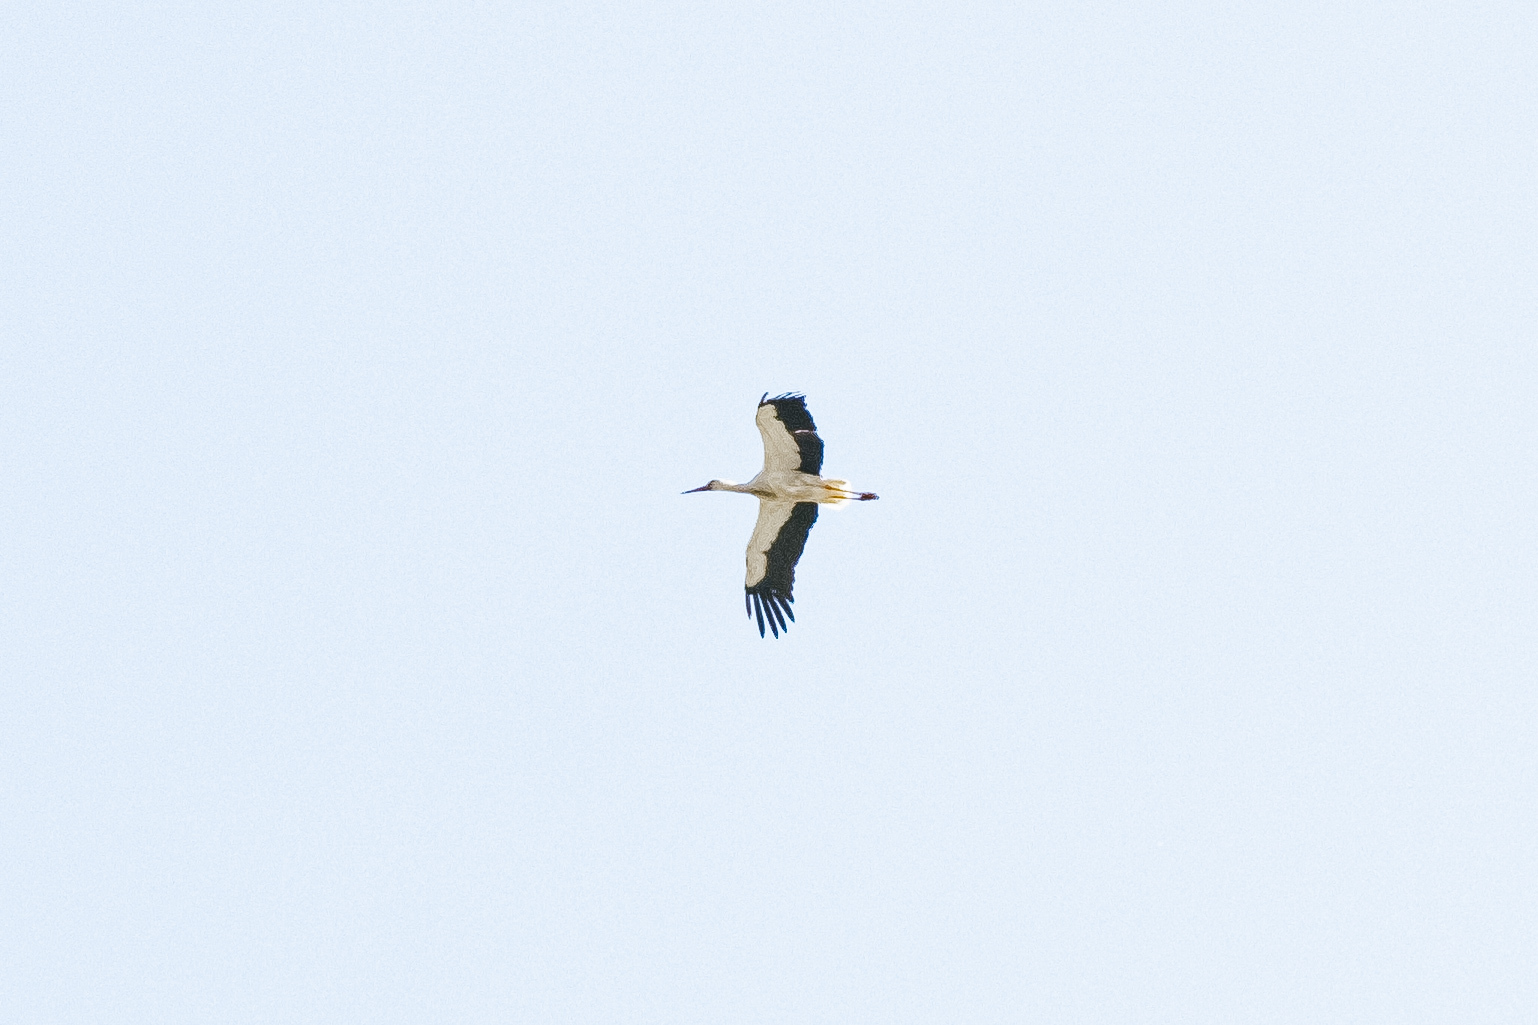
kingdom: Animalia
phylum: Chordata
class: Aves
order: Ciconiiformes
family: Ciconiidae
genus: Ciconia
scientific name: Ciconia ciconia
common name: White stork
